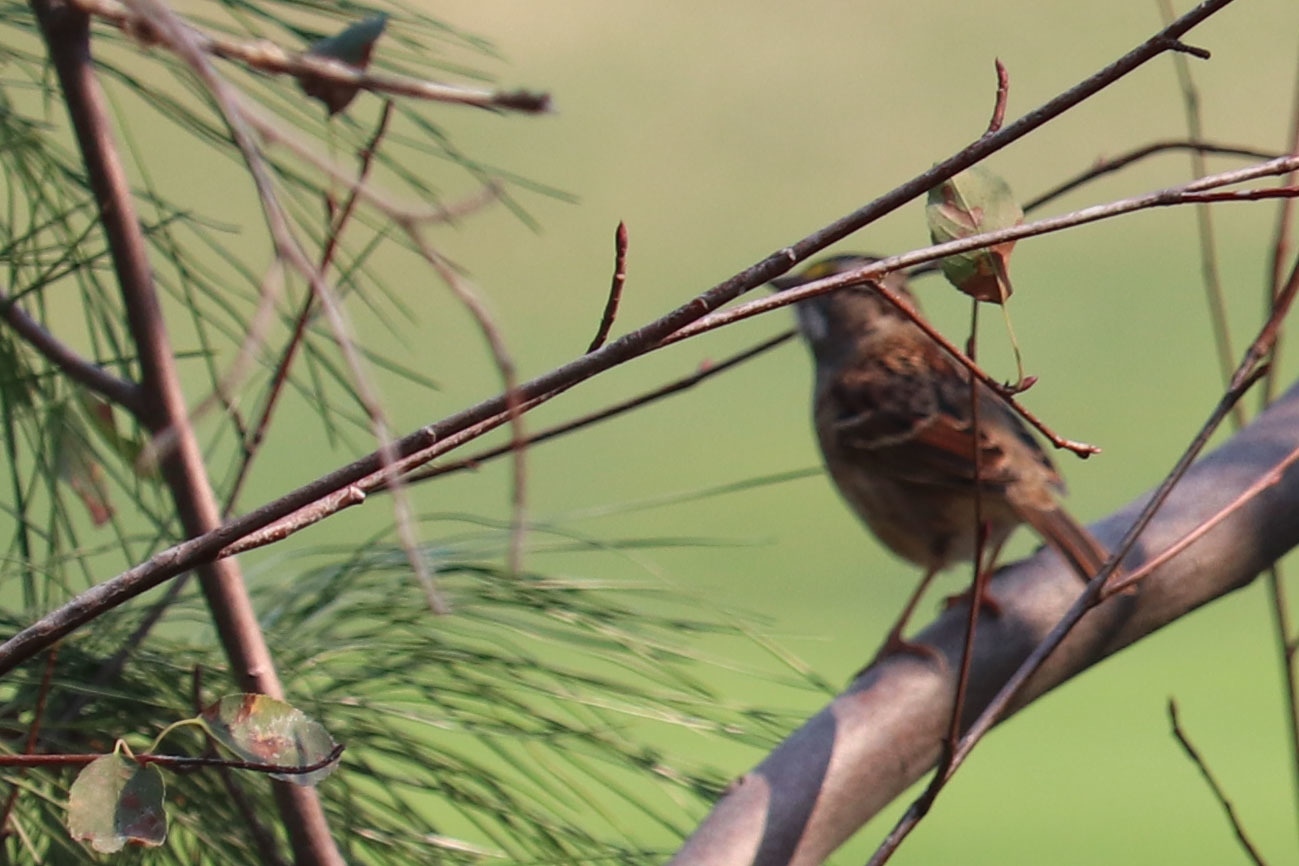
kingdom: Animalia
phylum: Chordata
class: Aves
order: Passeriformes
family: Passerellidae
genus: Zonotrichia
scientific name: Zonotrichia albicollis
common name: White-throated sparrow
